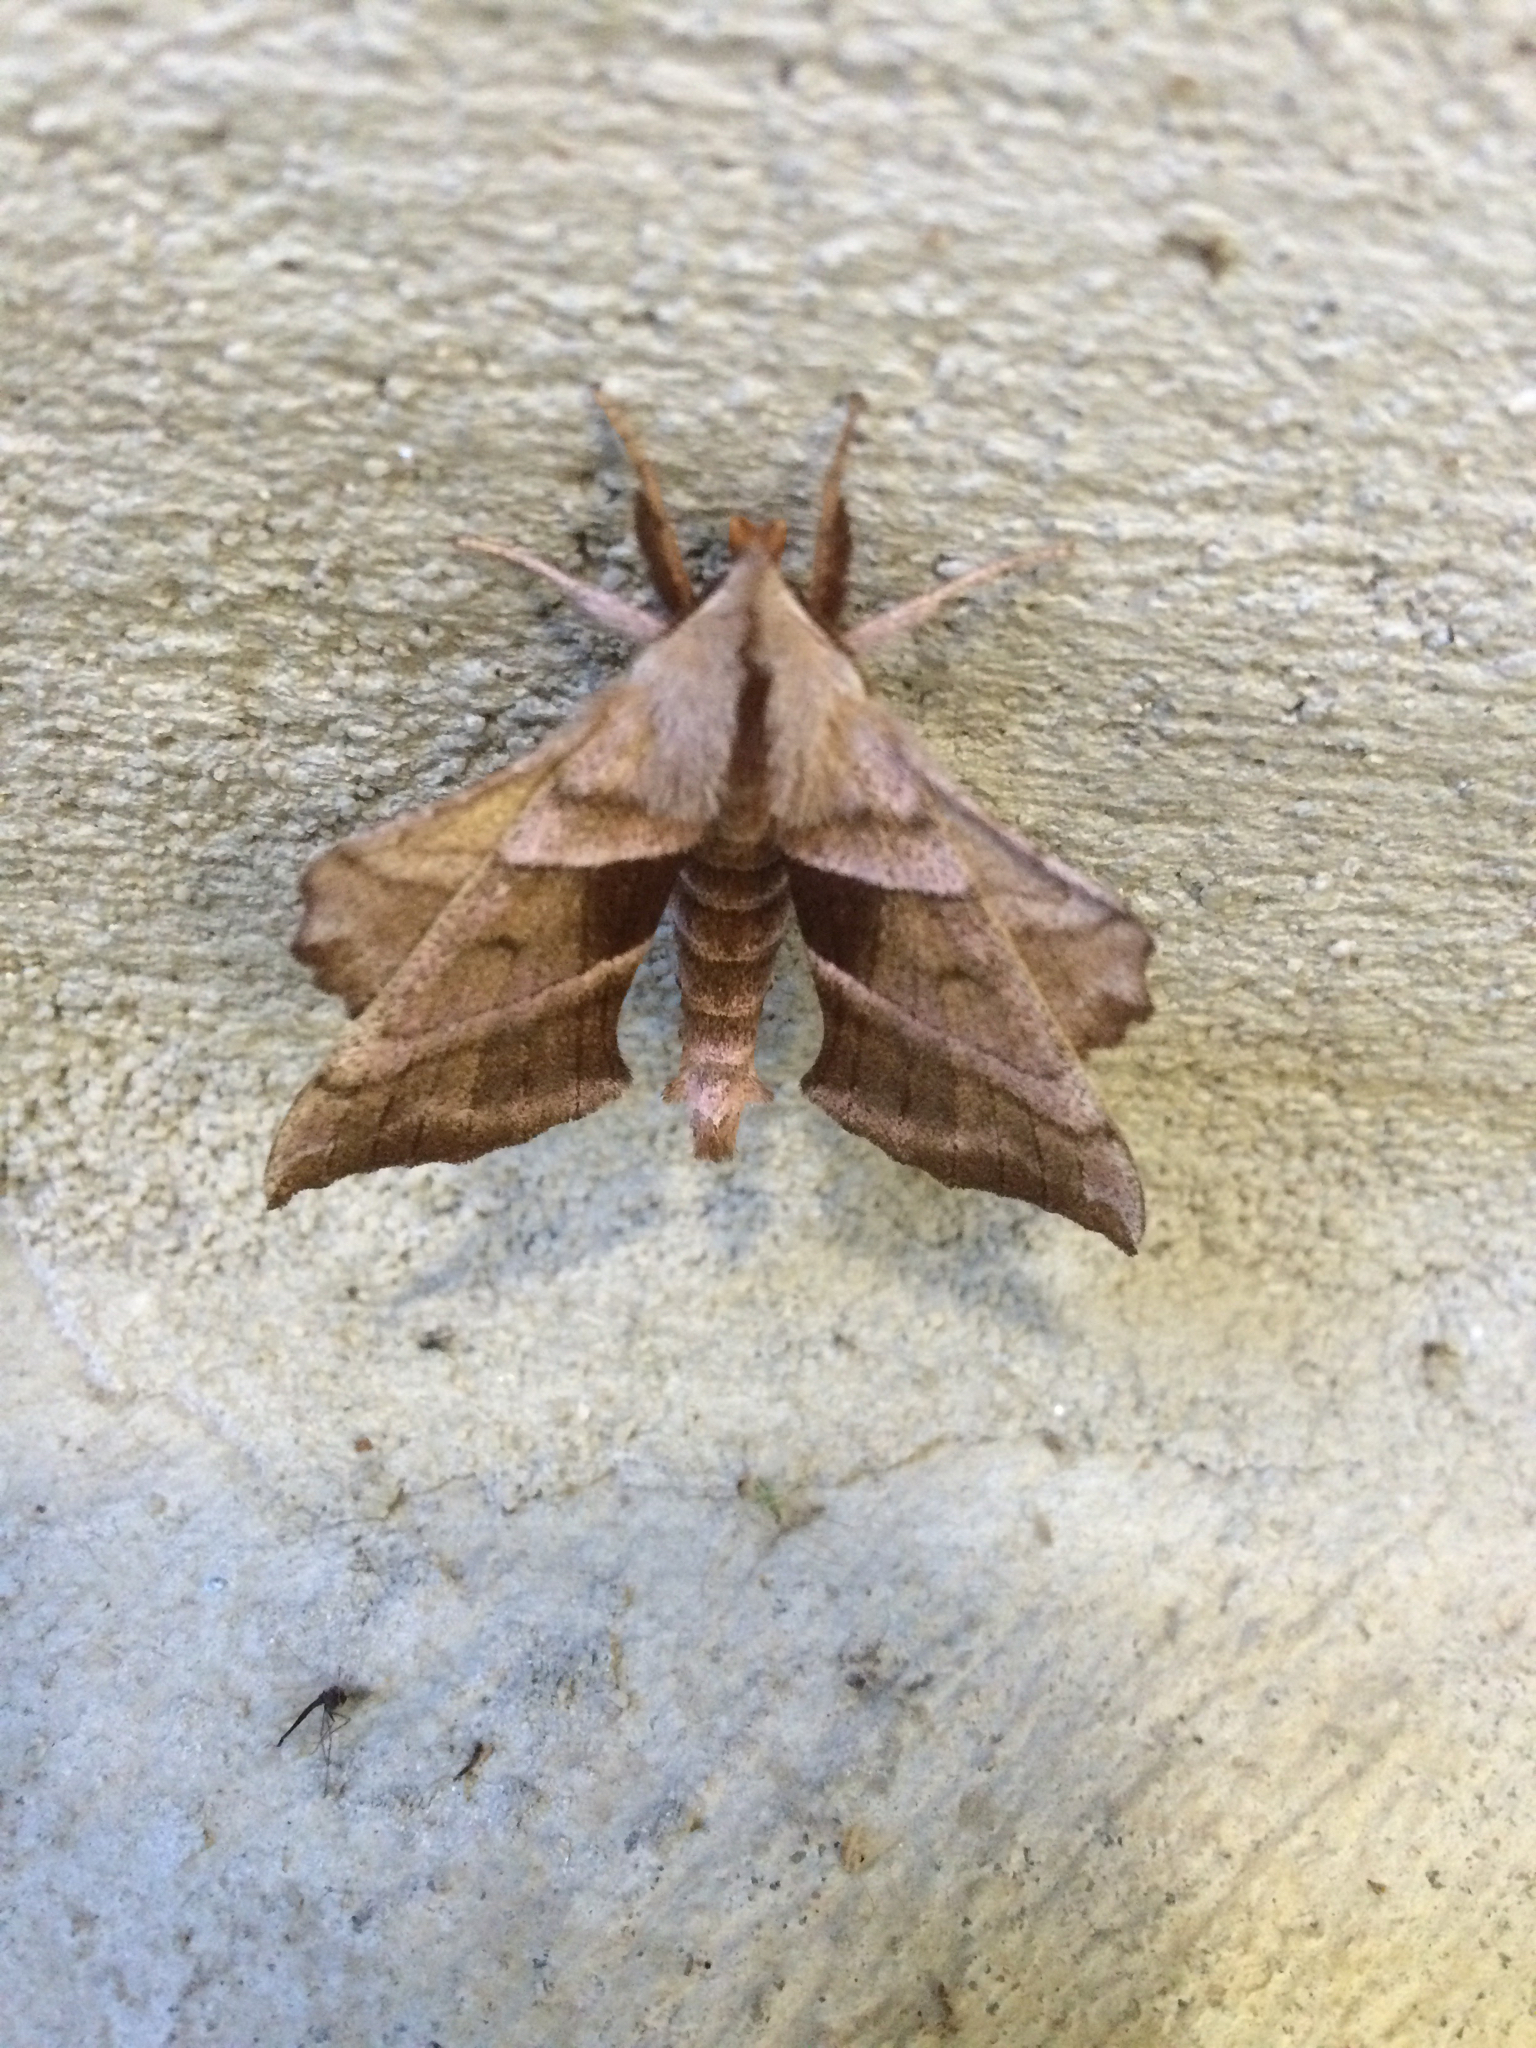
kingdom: Animalia
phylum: Arthropoda
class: Insecta
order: Lepidoptera
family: Sphingidae
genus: Amorpha
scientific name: Amorpha juglandis
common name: Walnut sphinx
